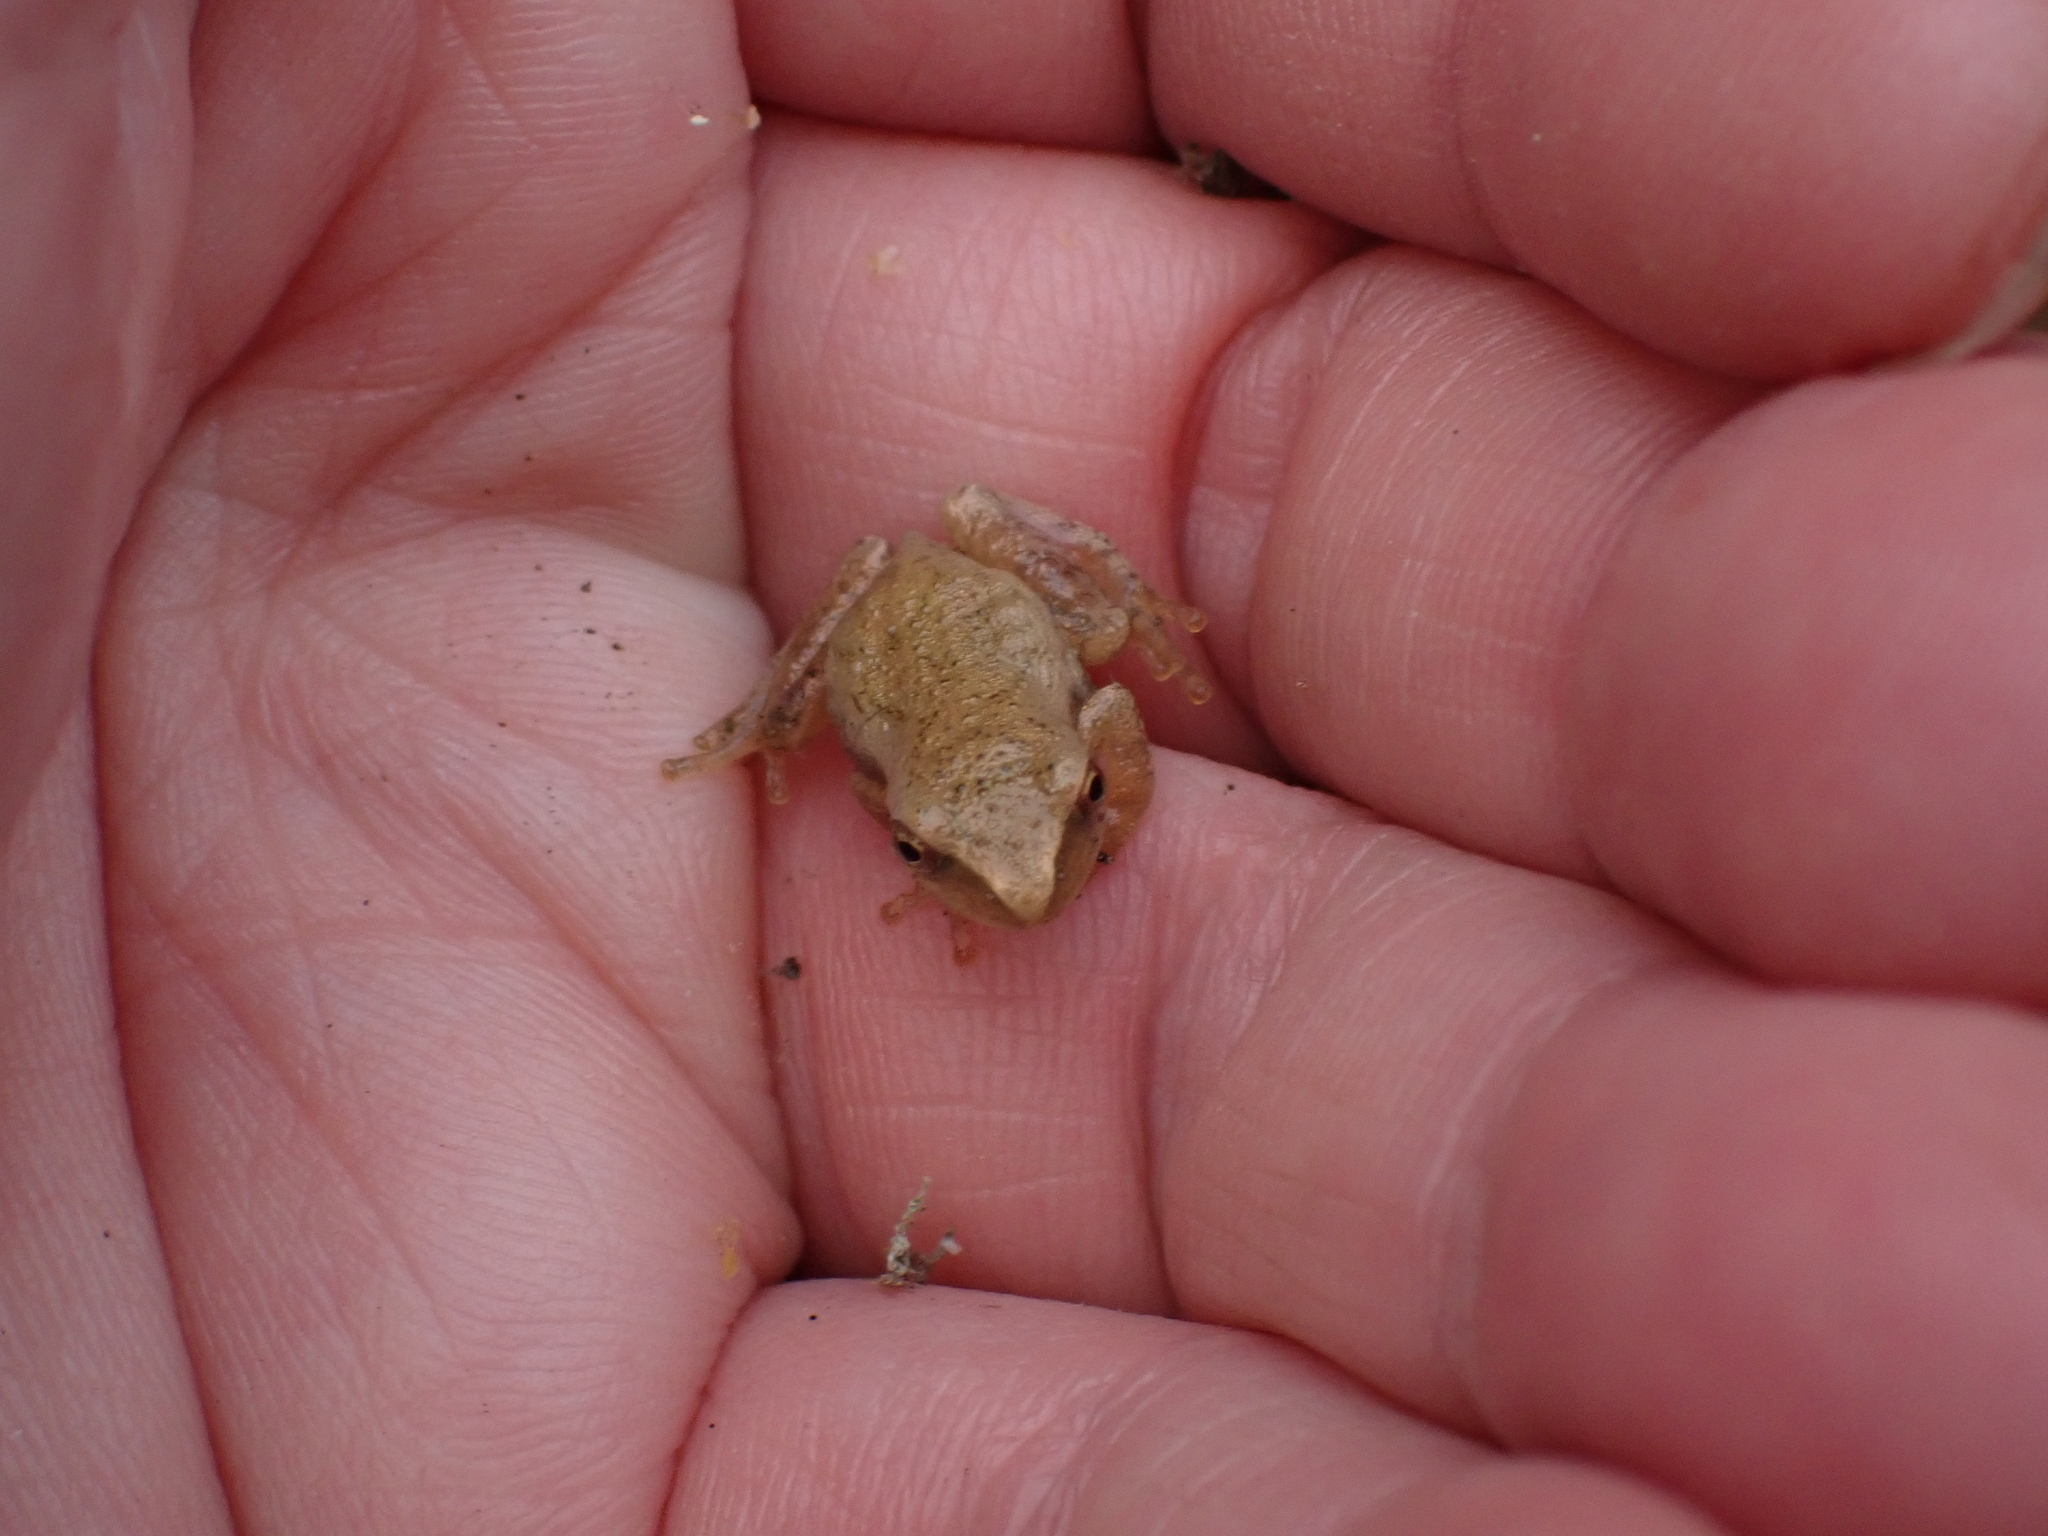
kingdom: Animalia
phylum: Chordata
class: Amphibia
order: Anura
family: Hylidae
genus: Pseudacris
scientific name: Pseudacris crucifer
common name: Spring peeper
